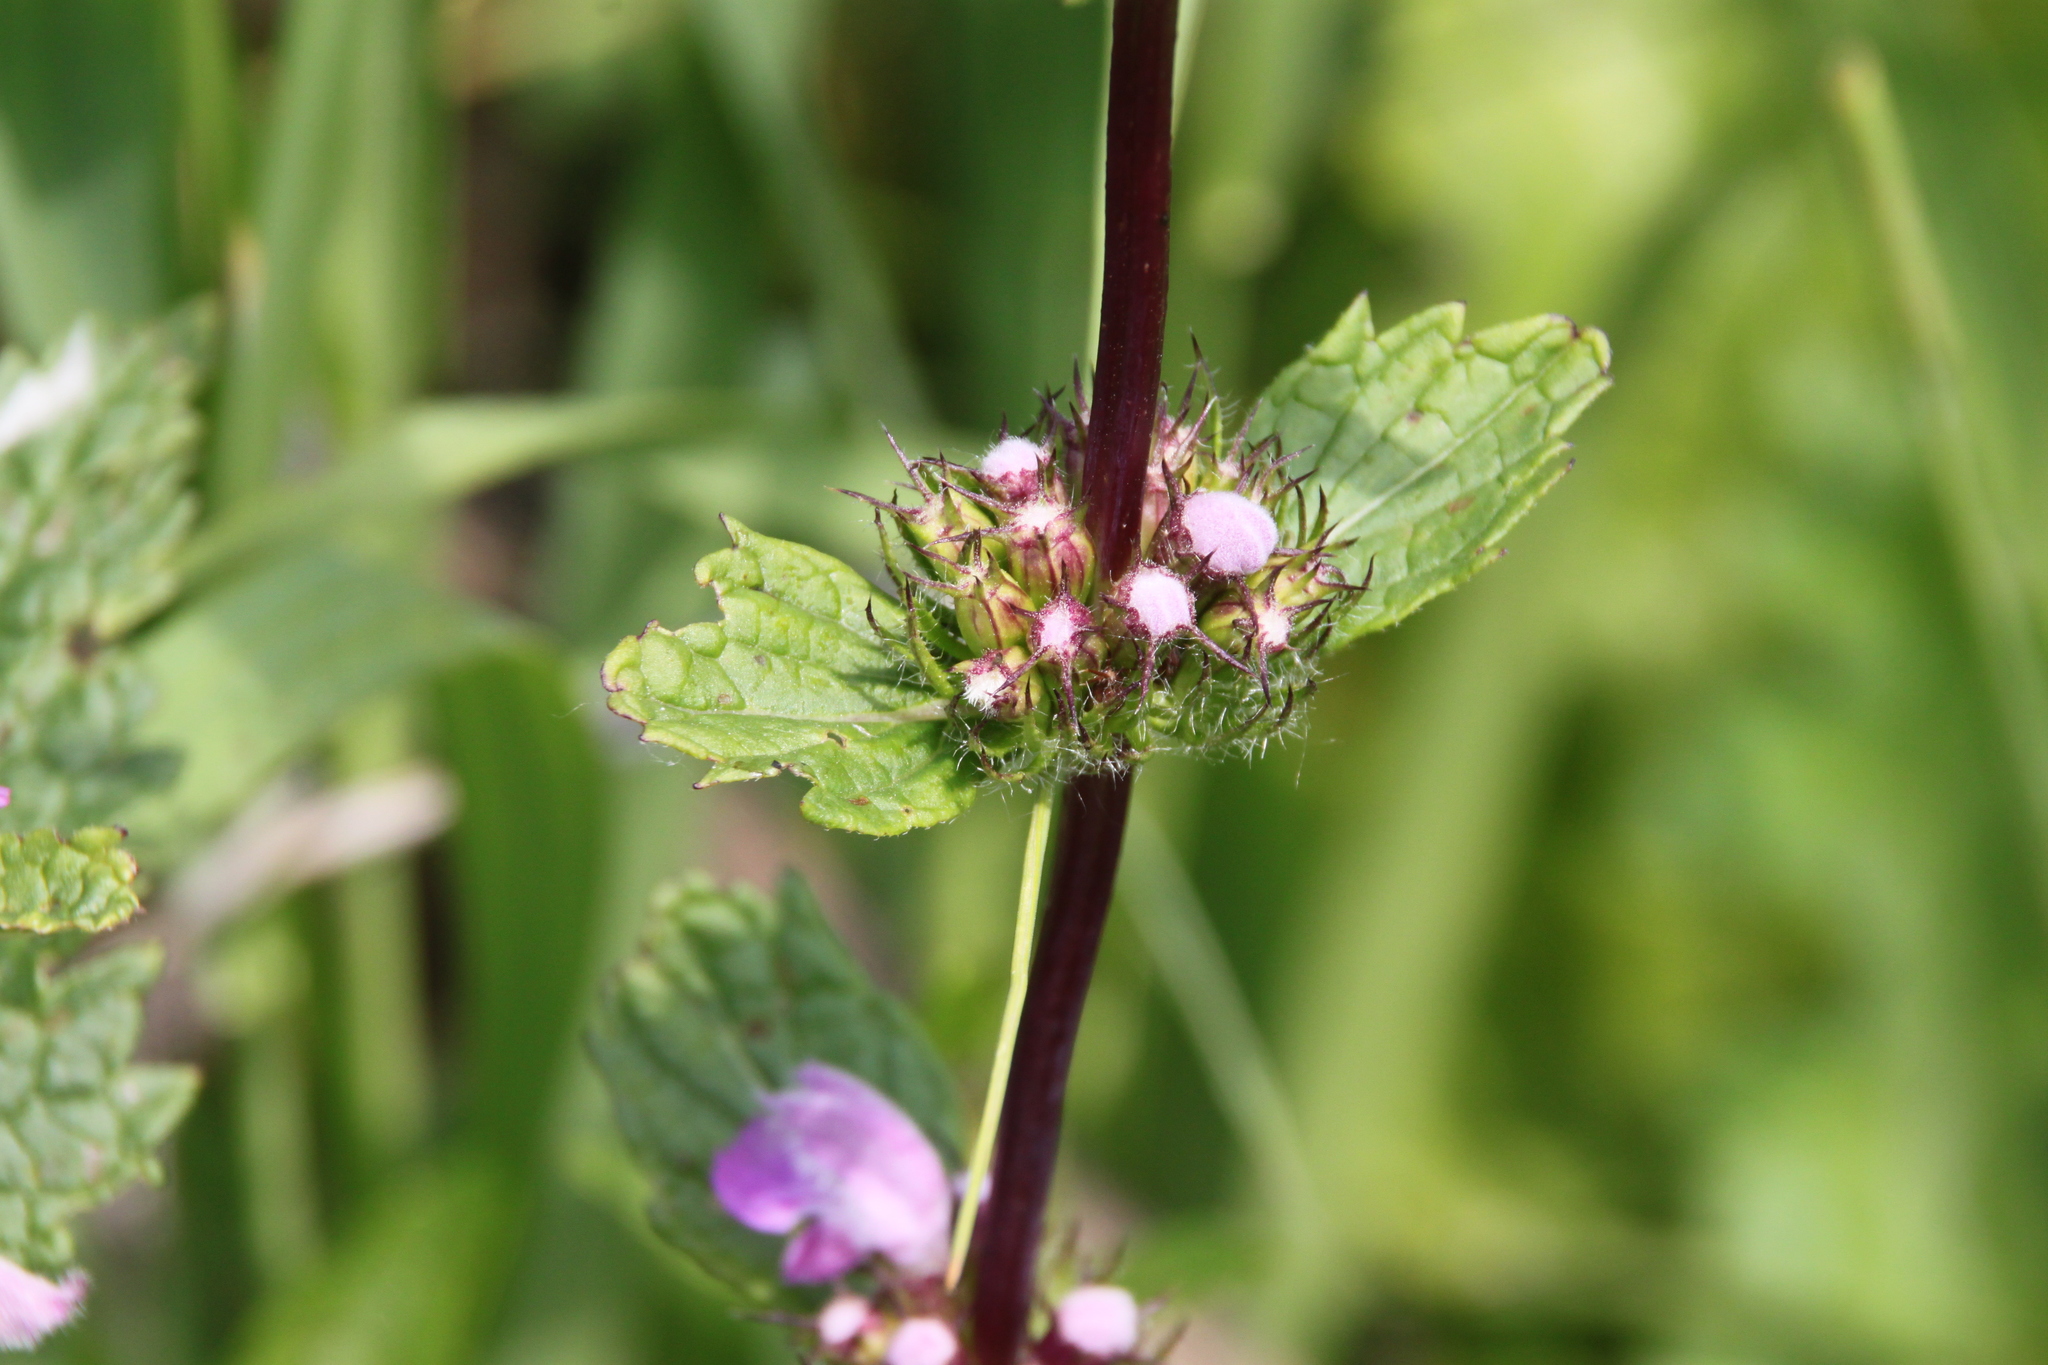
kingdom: Plantae
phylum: Tracheophyta
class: Magnoliopsida
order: Lamiales
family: Lamiaceae
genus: Phlomoides
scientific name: Phlomoides tuberosa
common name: Tuberous jerusalem sage
